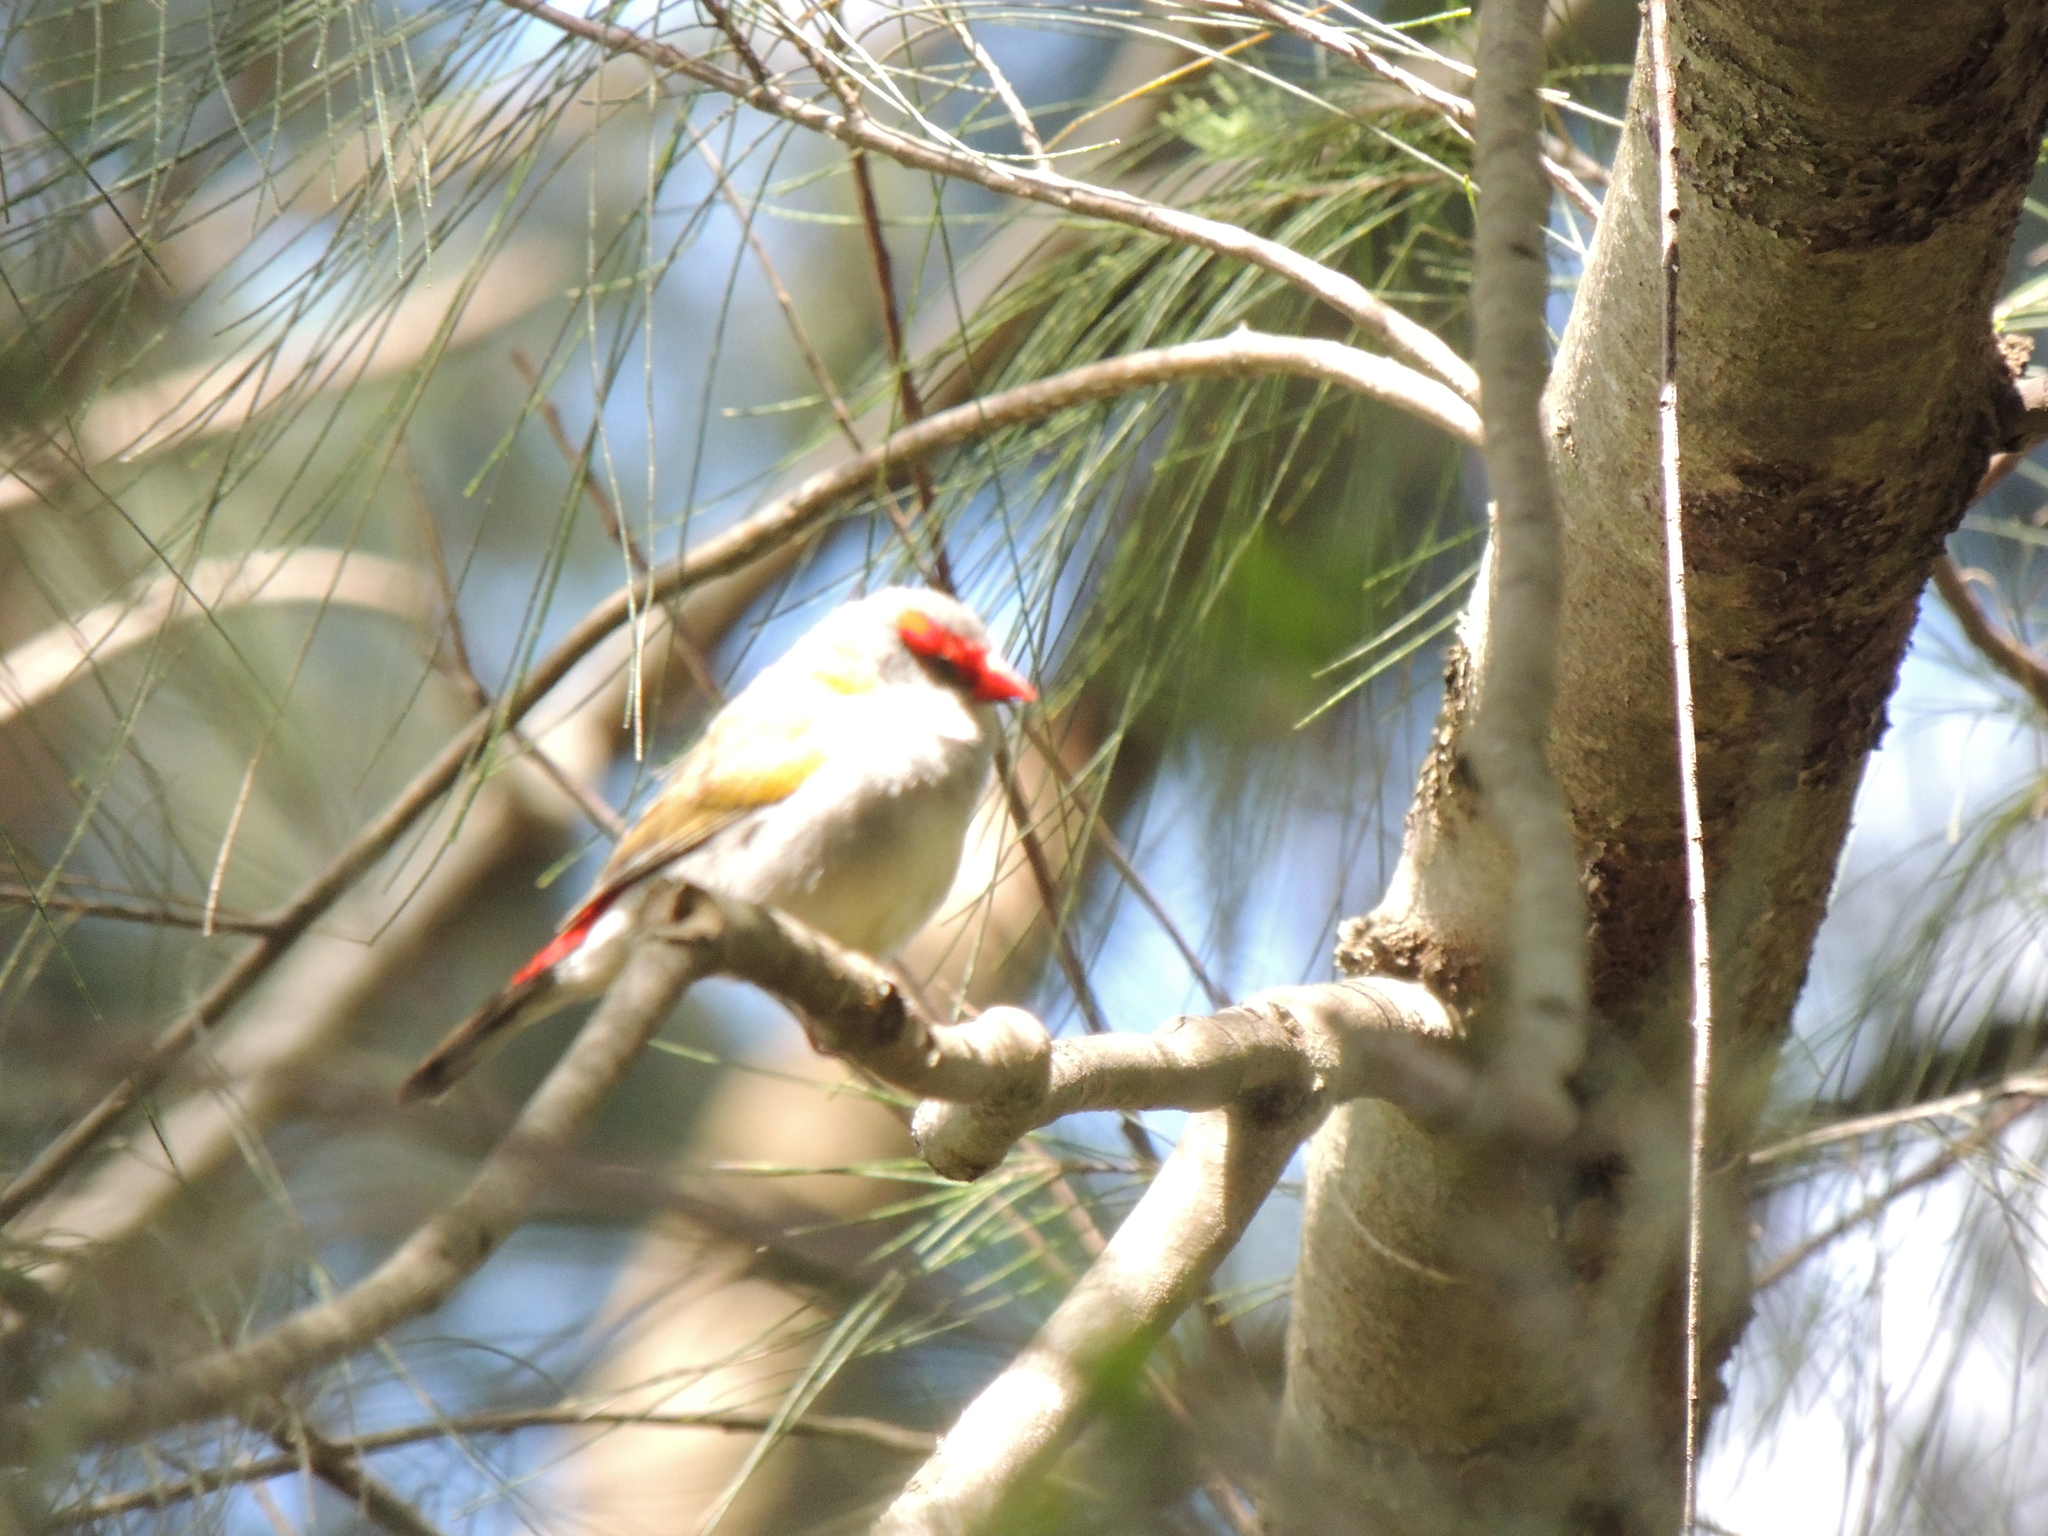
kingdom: Animalia
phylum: Chordata
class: Aves
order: Passeriformes
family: Estrildidae
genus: Neochmia
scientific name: Neochmia temporalis
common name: Red-browed finch
